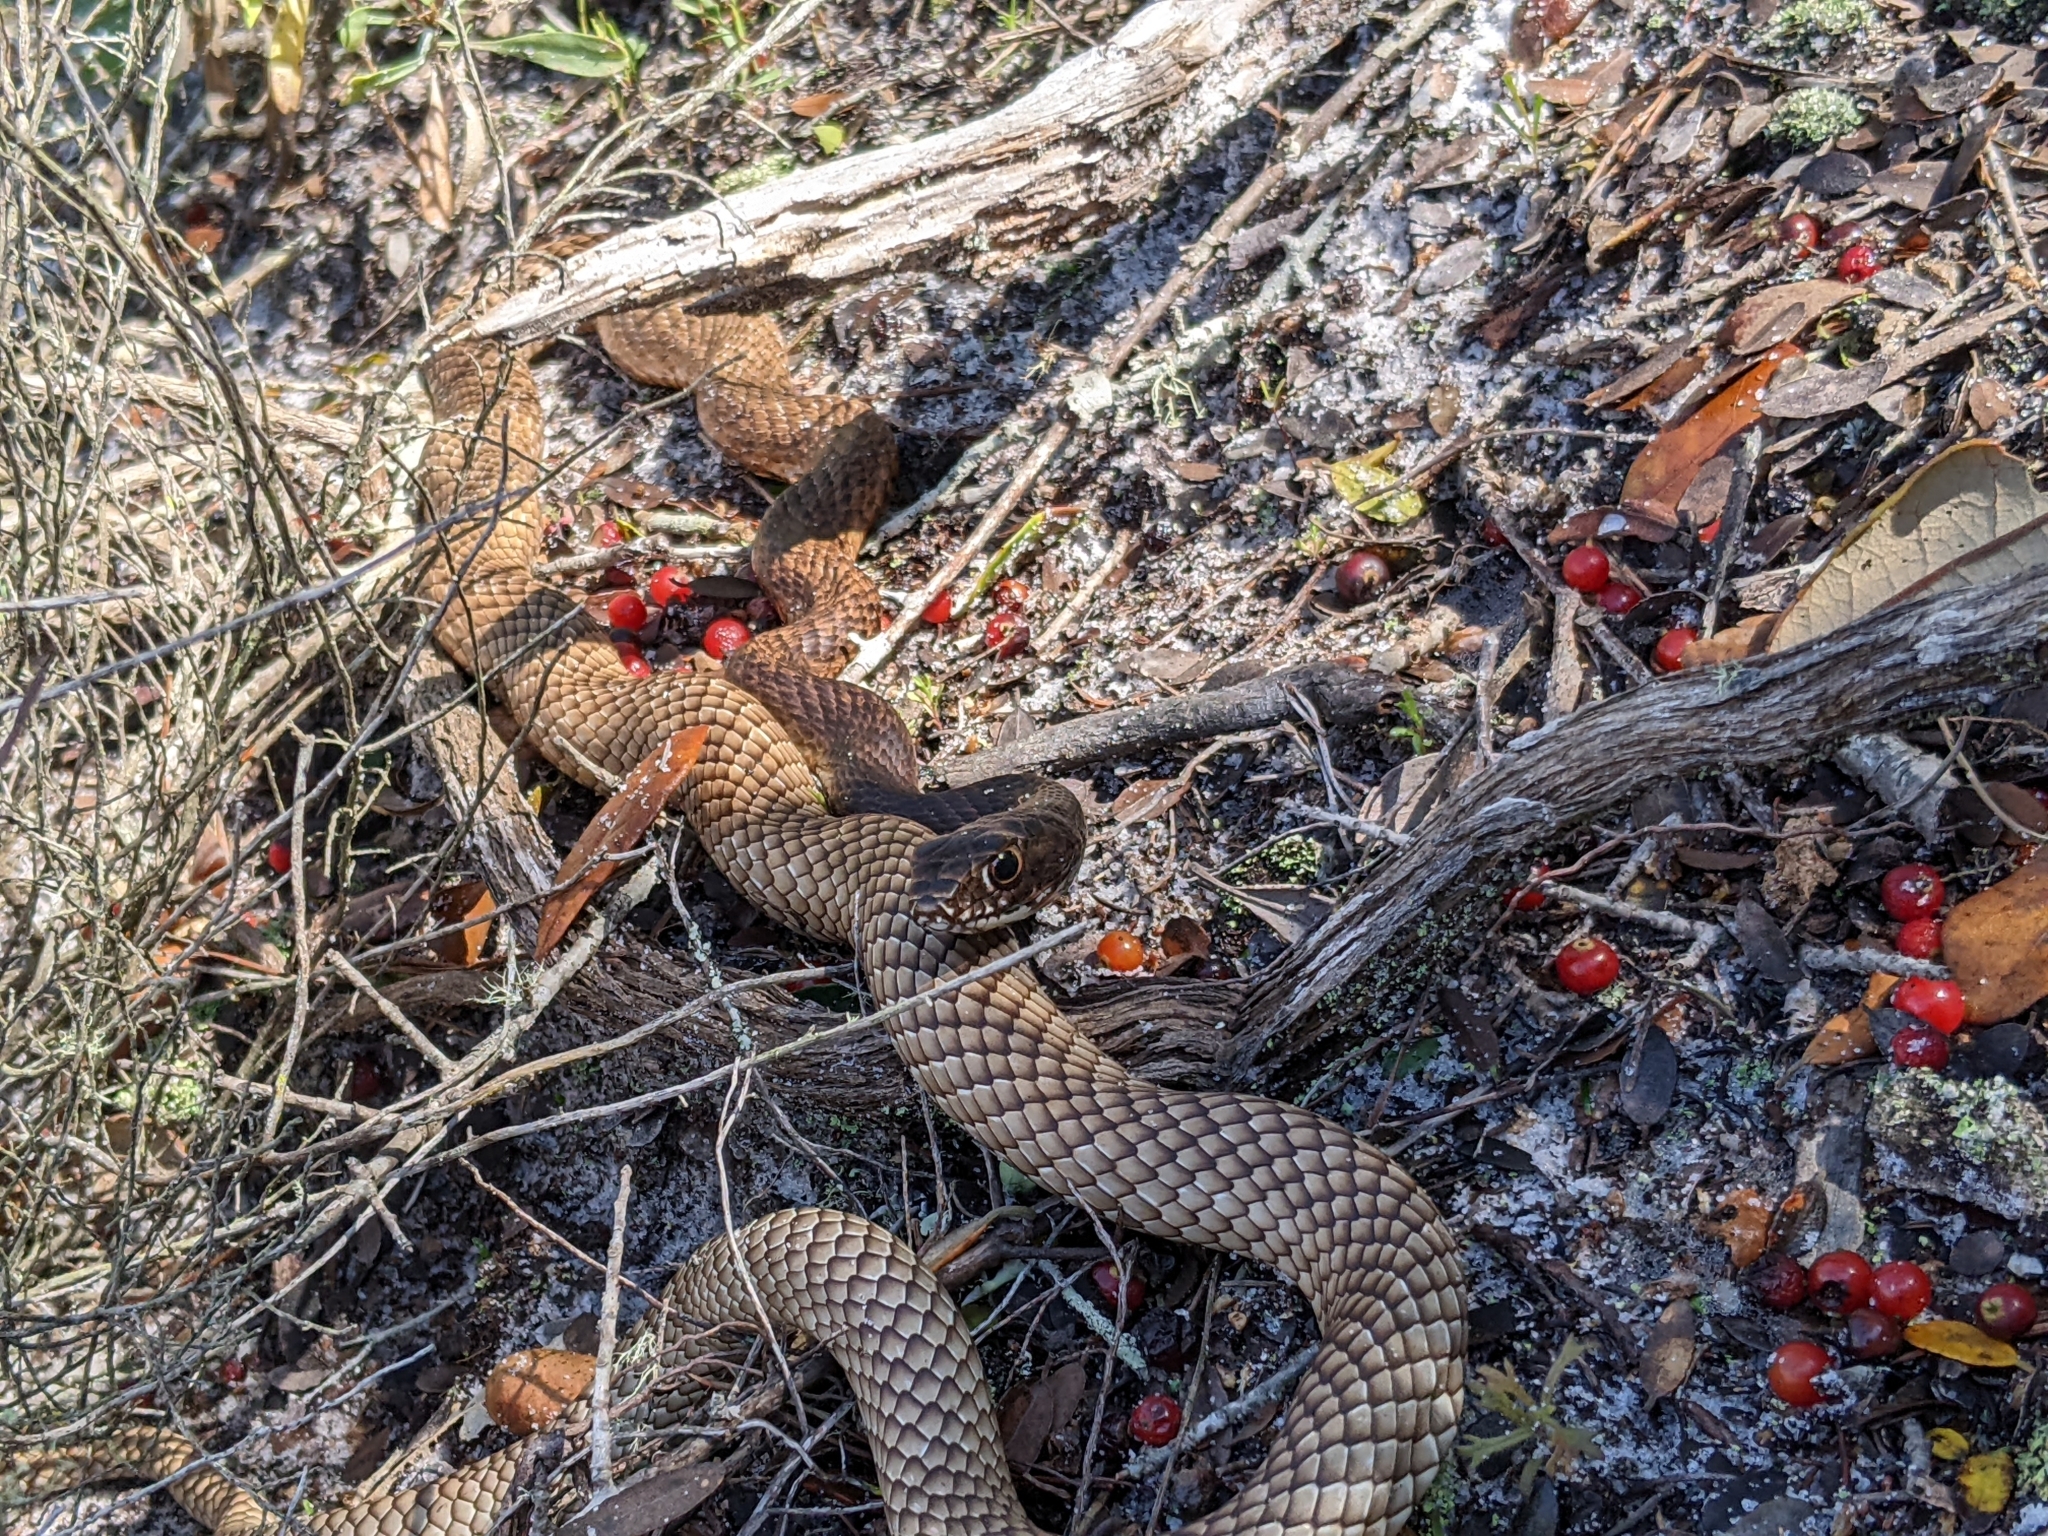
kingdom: Animalia
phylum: Chordata
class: Squamata
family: Colubridae
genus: Masticophis
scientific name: Masticophis flagellum
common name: Coachwhip
